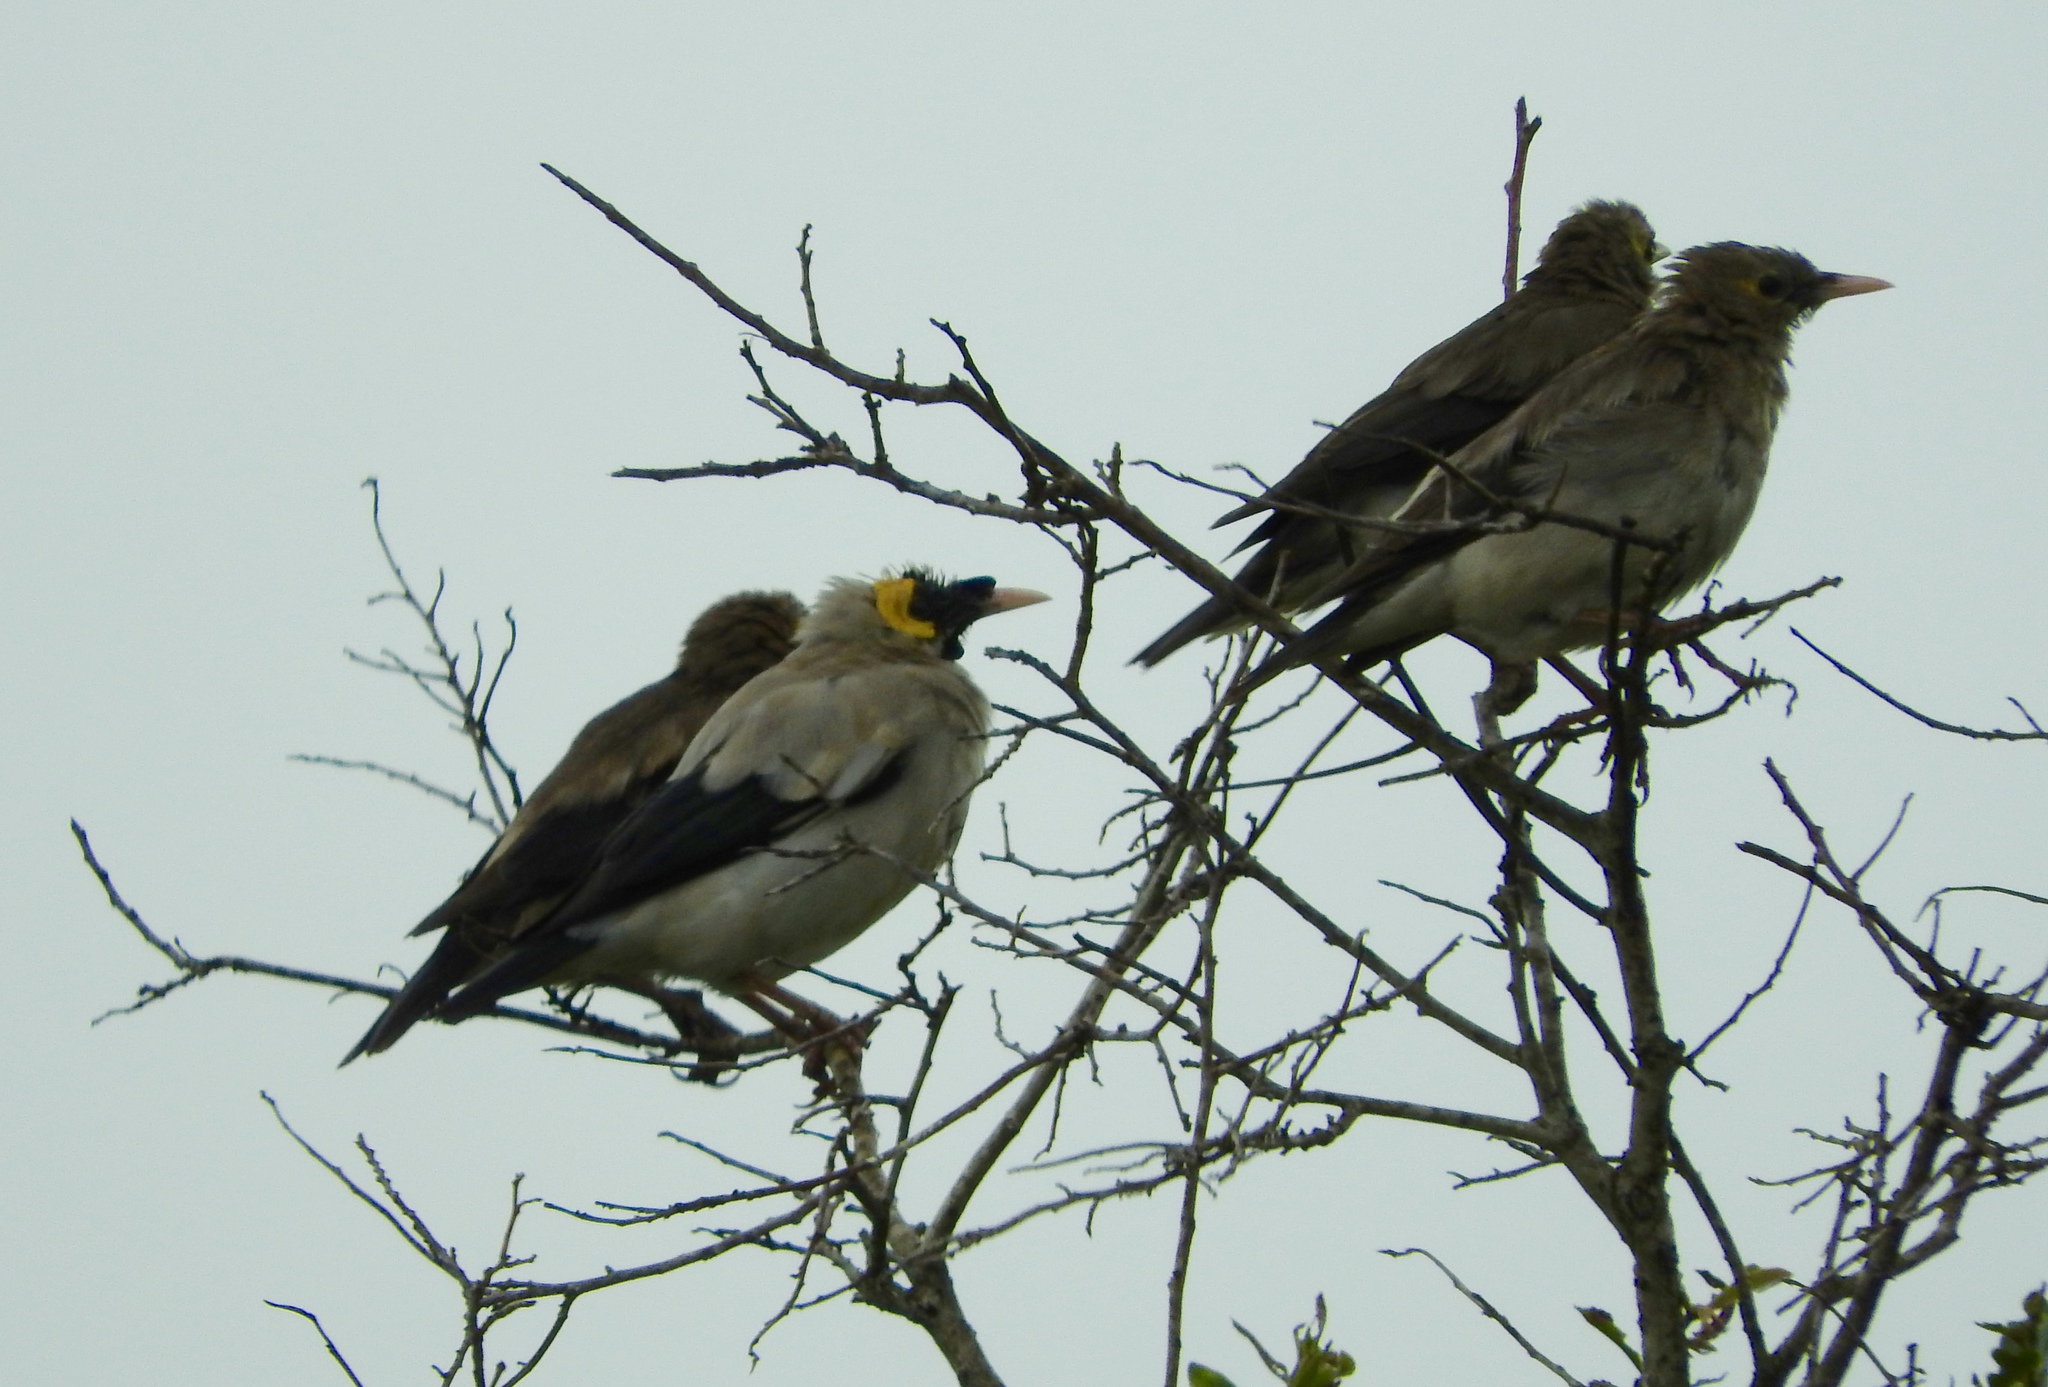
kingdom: Animalia
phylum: Chordata
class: Aves
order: Passeriformes
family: Sturnidae
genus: Creatophora
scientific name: Creatophora cinerea
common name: Wattled starling
